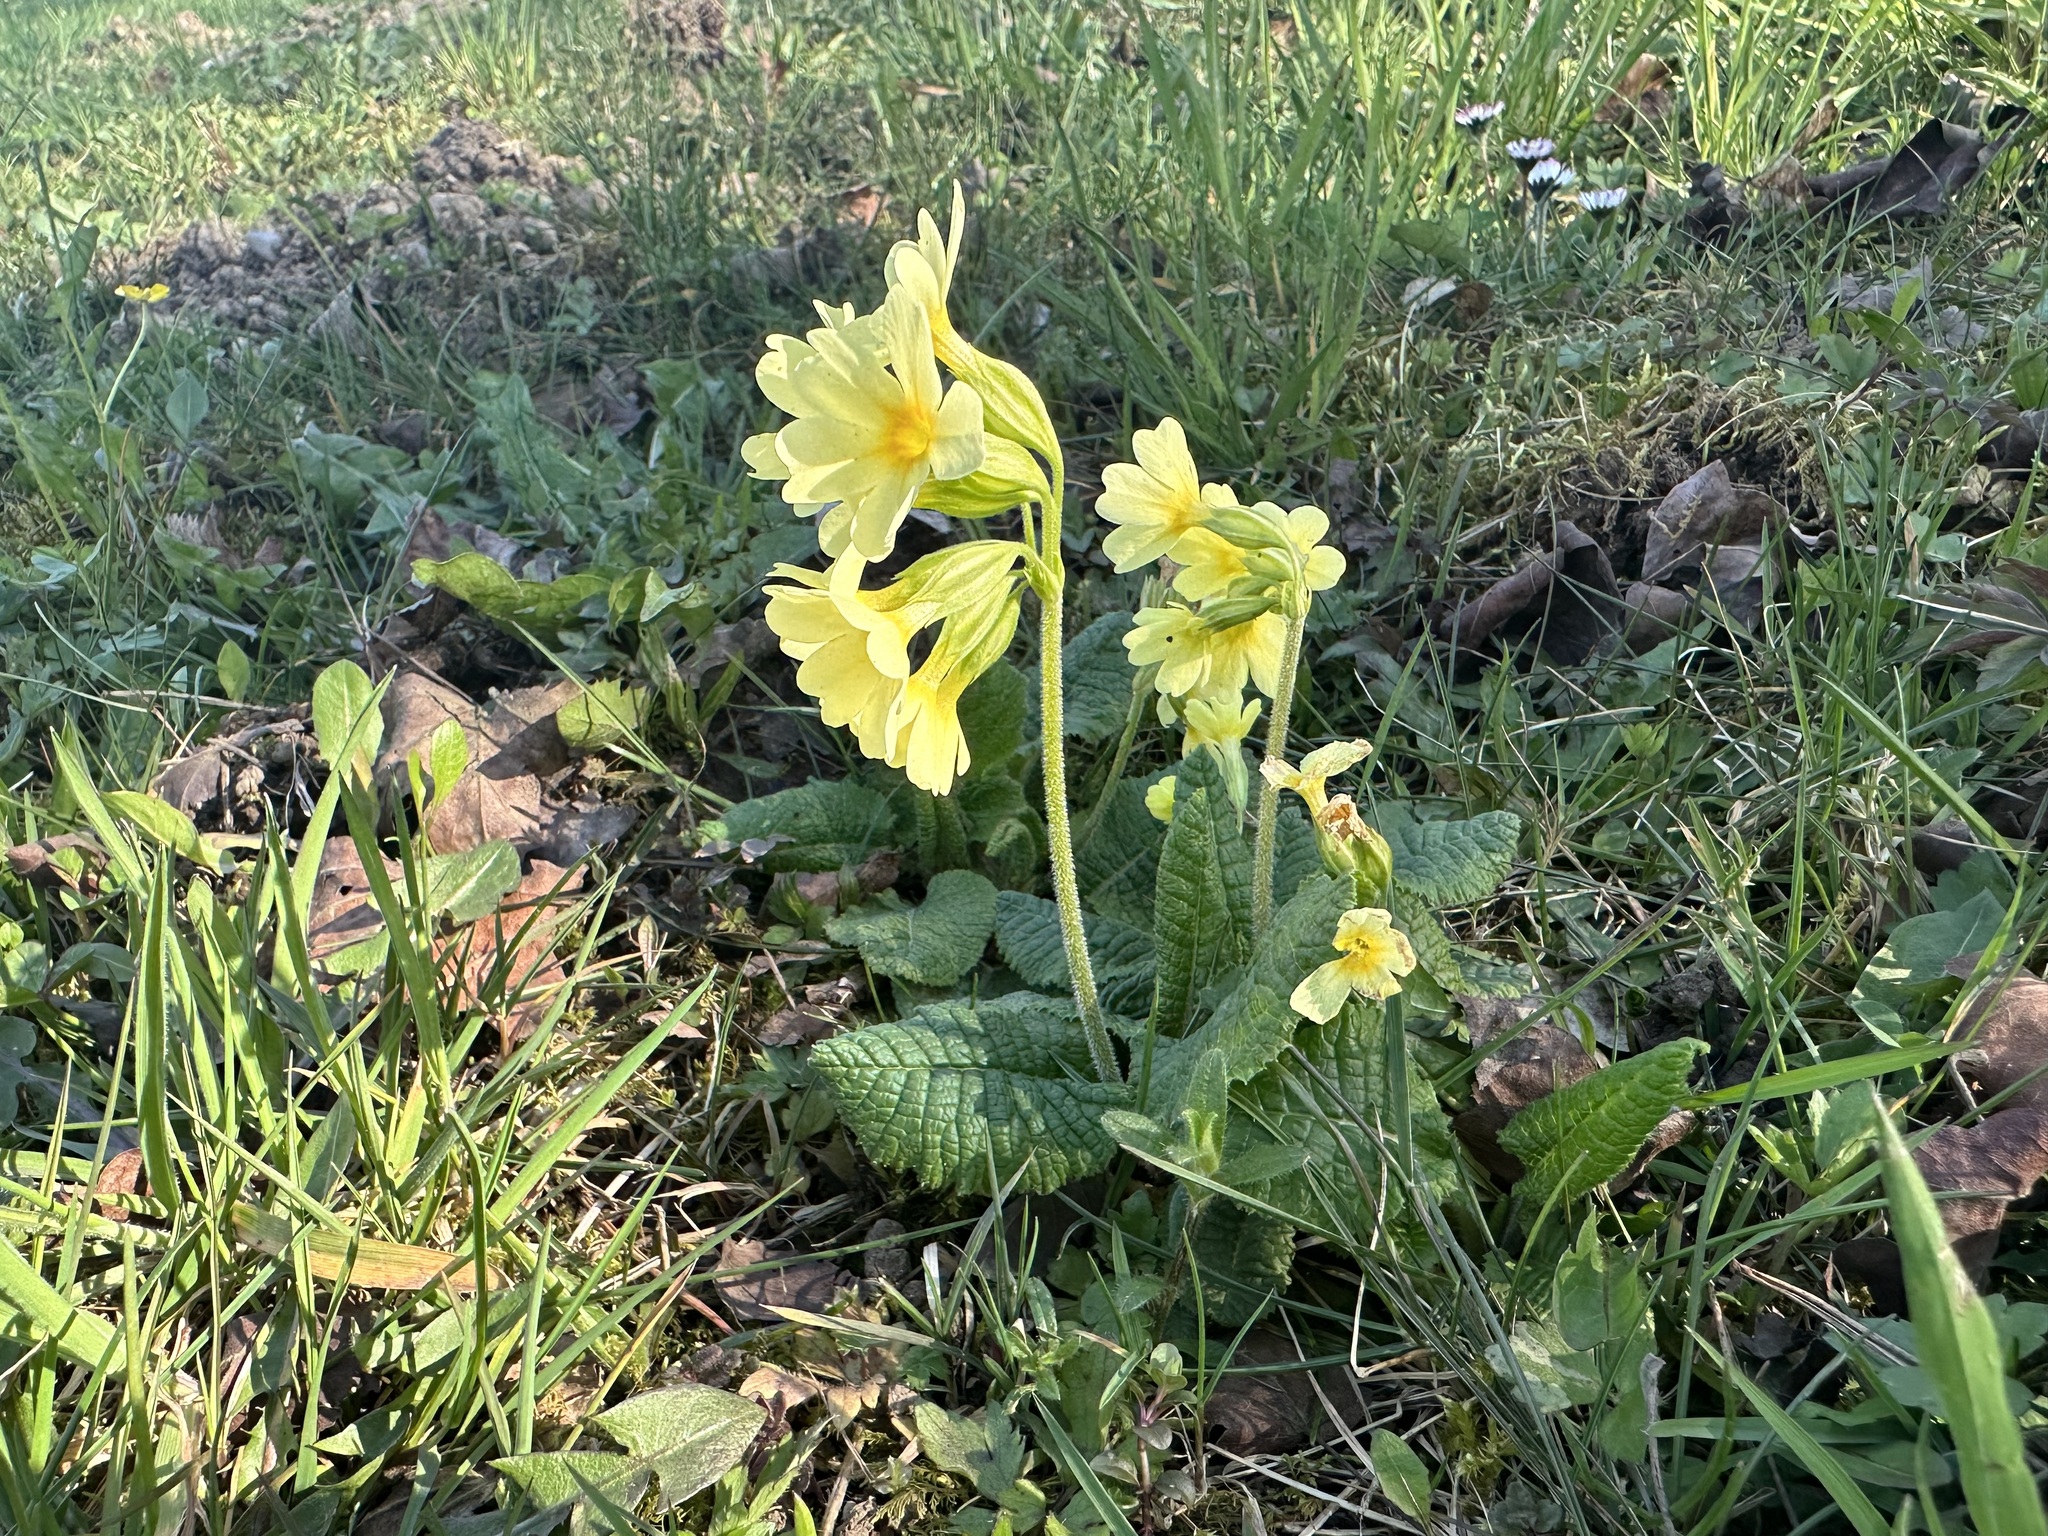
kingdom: Plantae
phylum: Tracheophyta
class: Magnoliopsida
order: Ericales
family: Primulaceae
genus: Primula
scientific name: Primula elatior
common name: Oxlip
